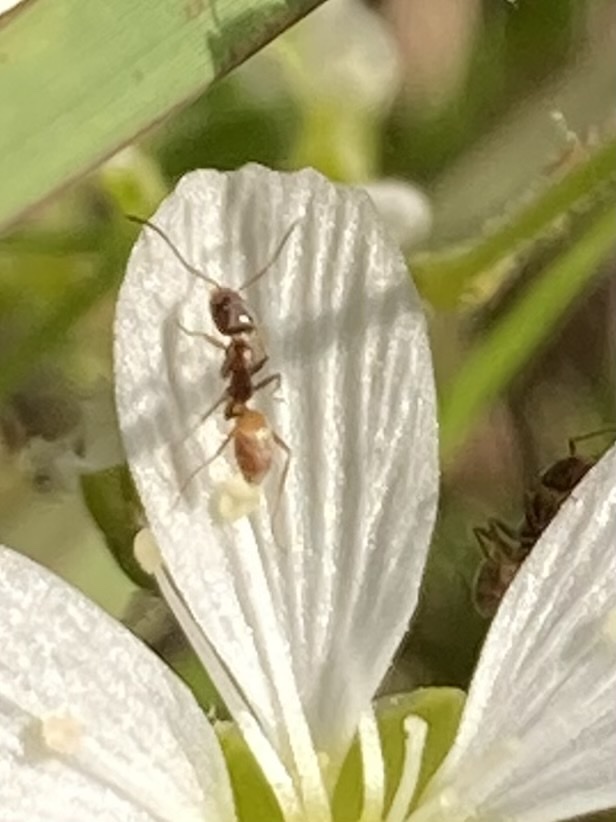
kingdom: Animalia
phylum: Arthropoda
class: Insecta
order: Hymenoptera
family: Formicidae
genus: Forelius
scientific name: Forelius pruinosus
